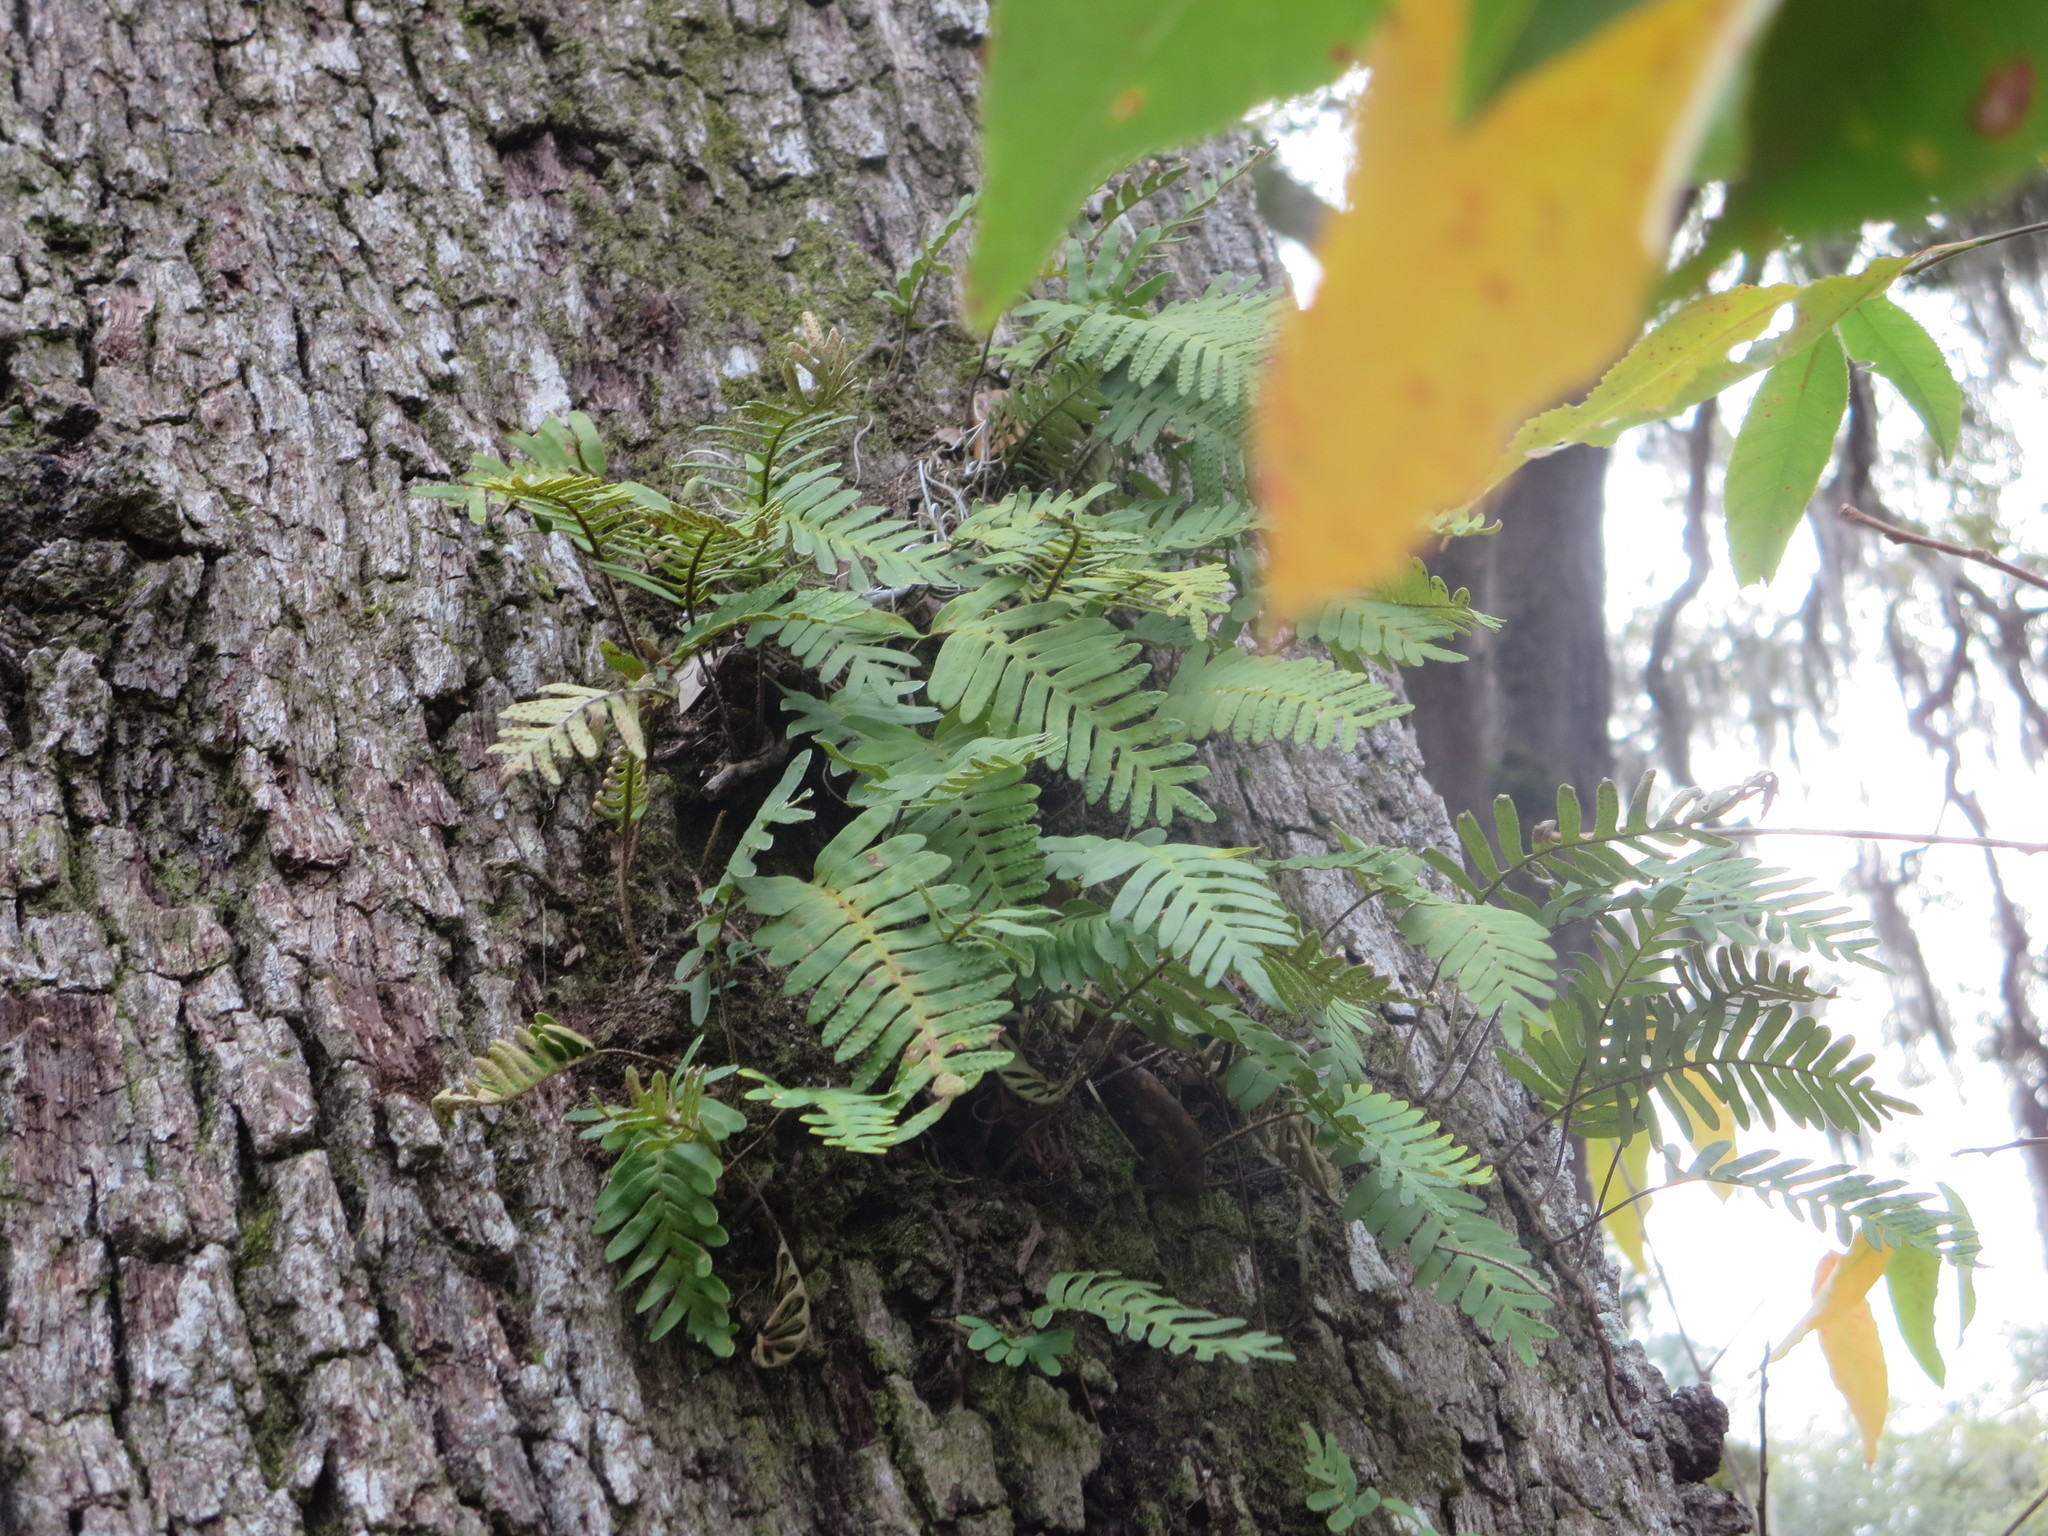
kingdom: Plantae
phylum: Tracheophyta
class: Polypodiopsida
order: Polypodiales
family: Polypodiaceae
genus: Pleopeltis
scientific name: Pleopeltis michauxiana
